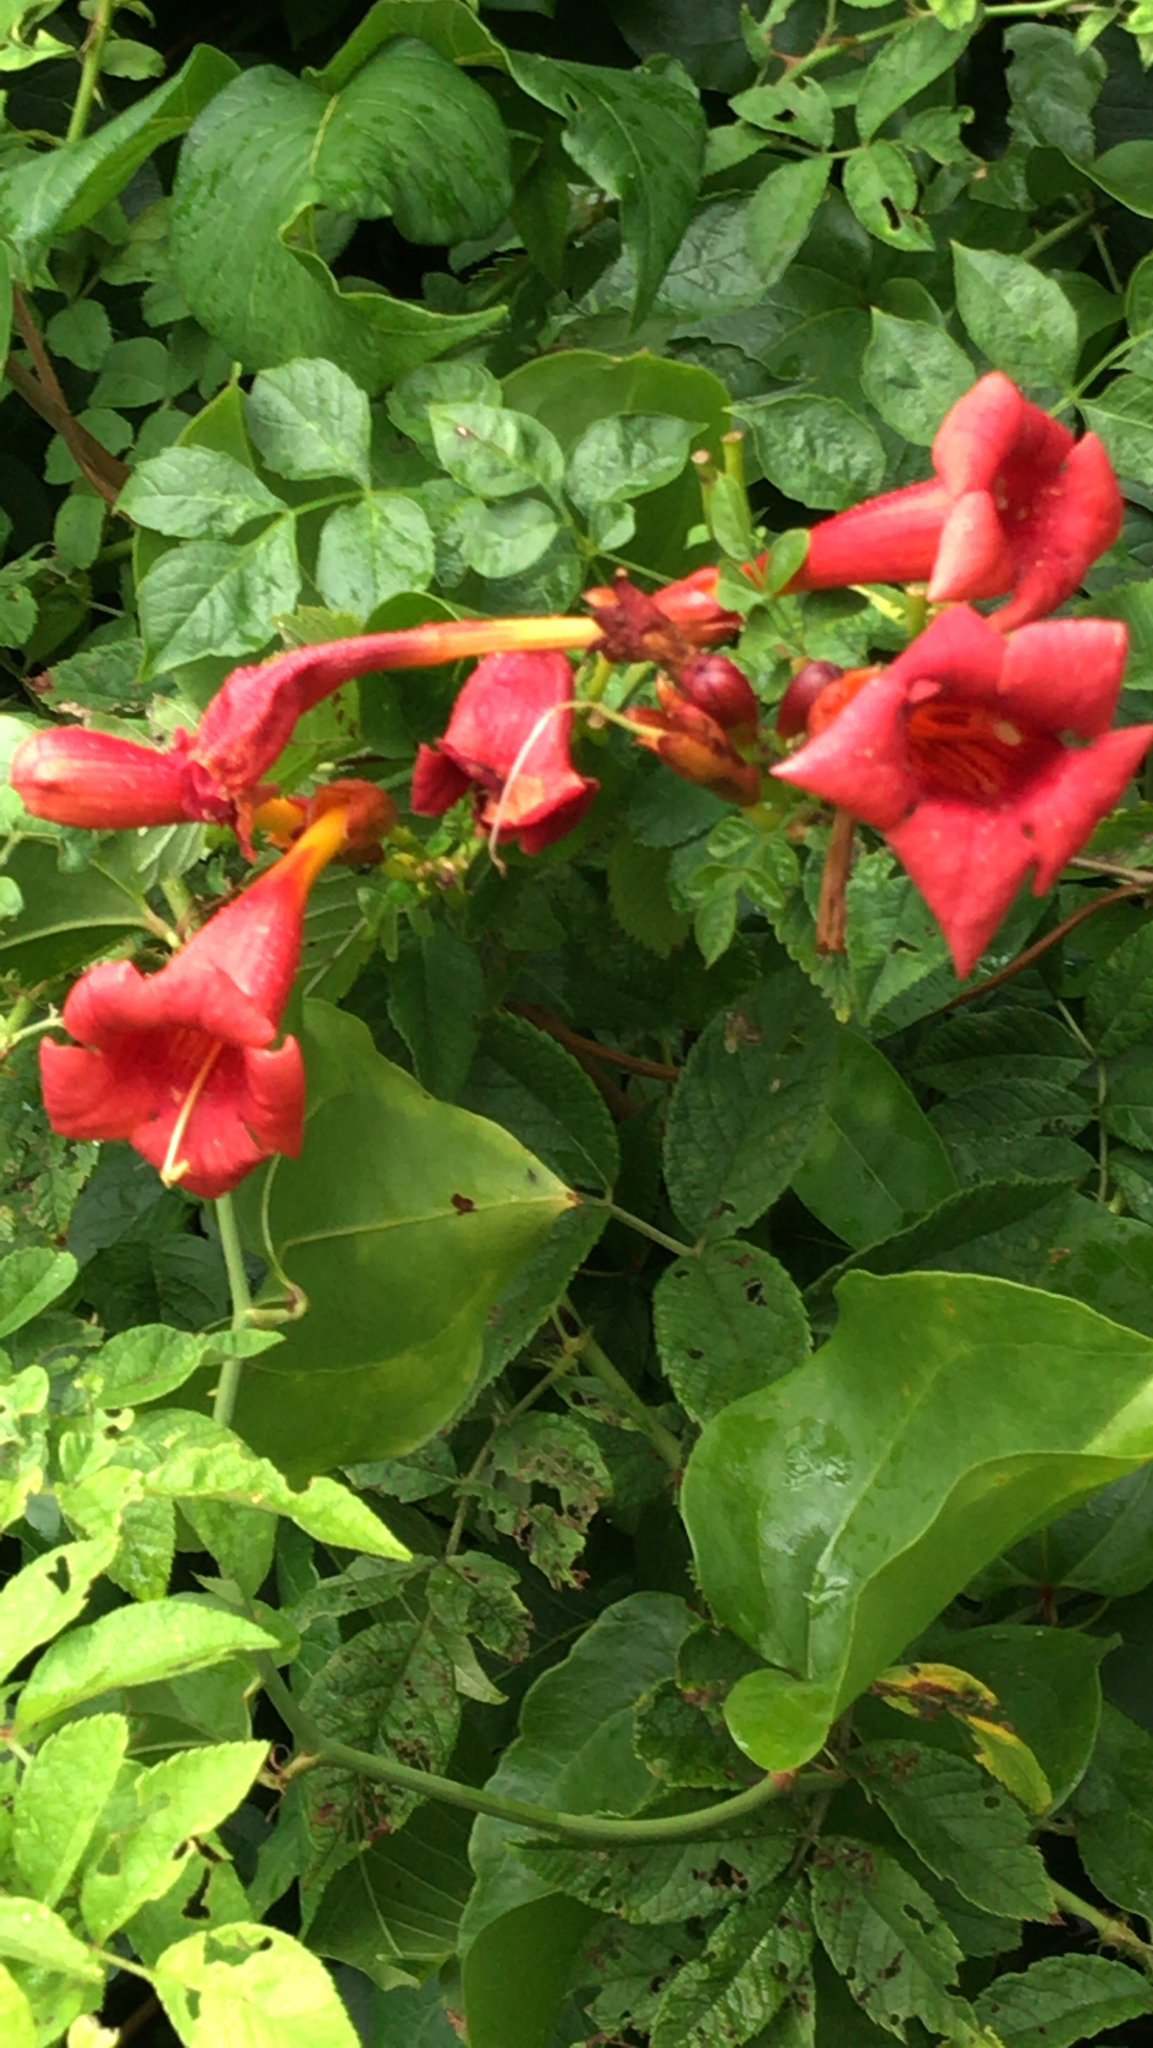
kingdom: Plantae
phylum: Tracheophyta
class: Magnoliopsida
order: Lamiales
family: Bignoniaceae
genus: Campsis
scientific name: Campsis radicans
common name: Trumpet-creeper
